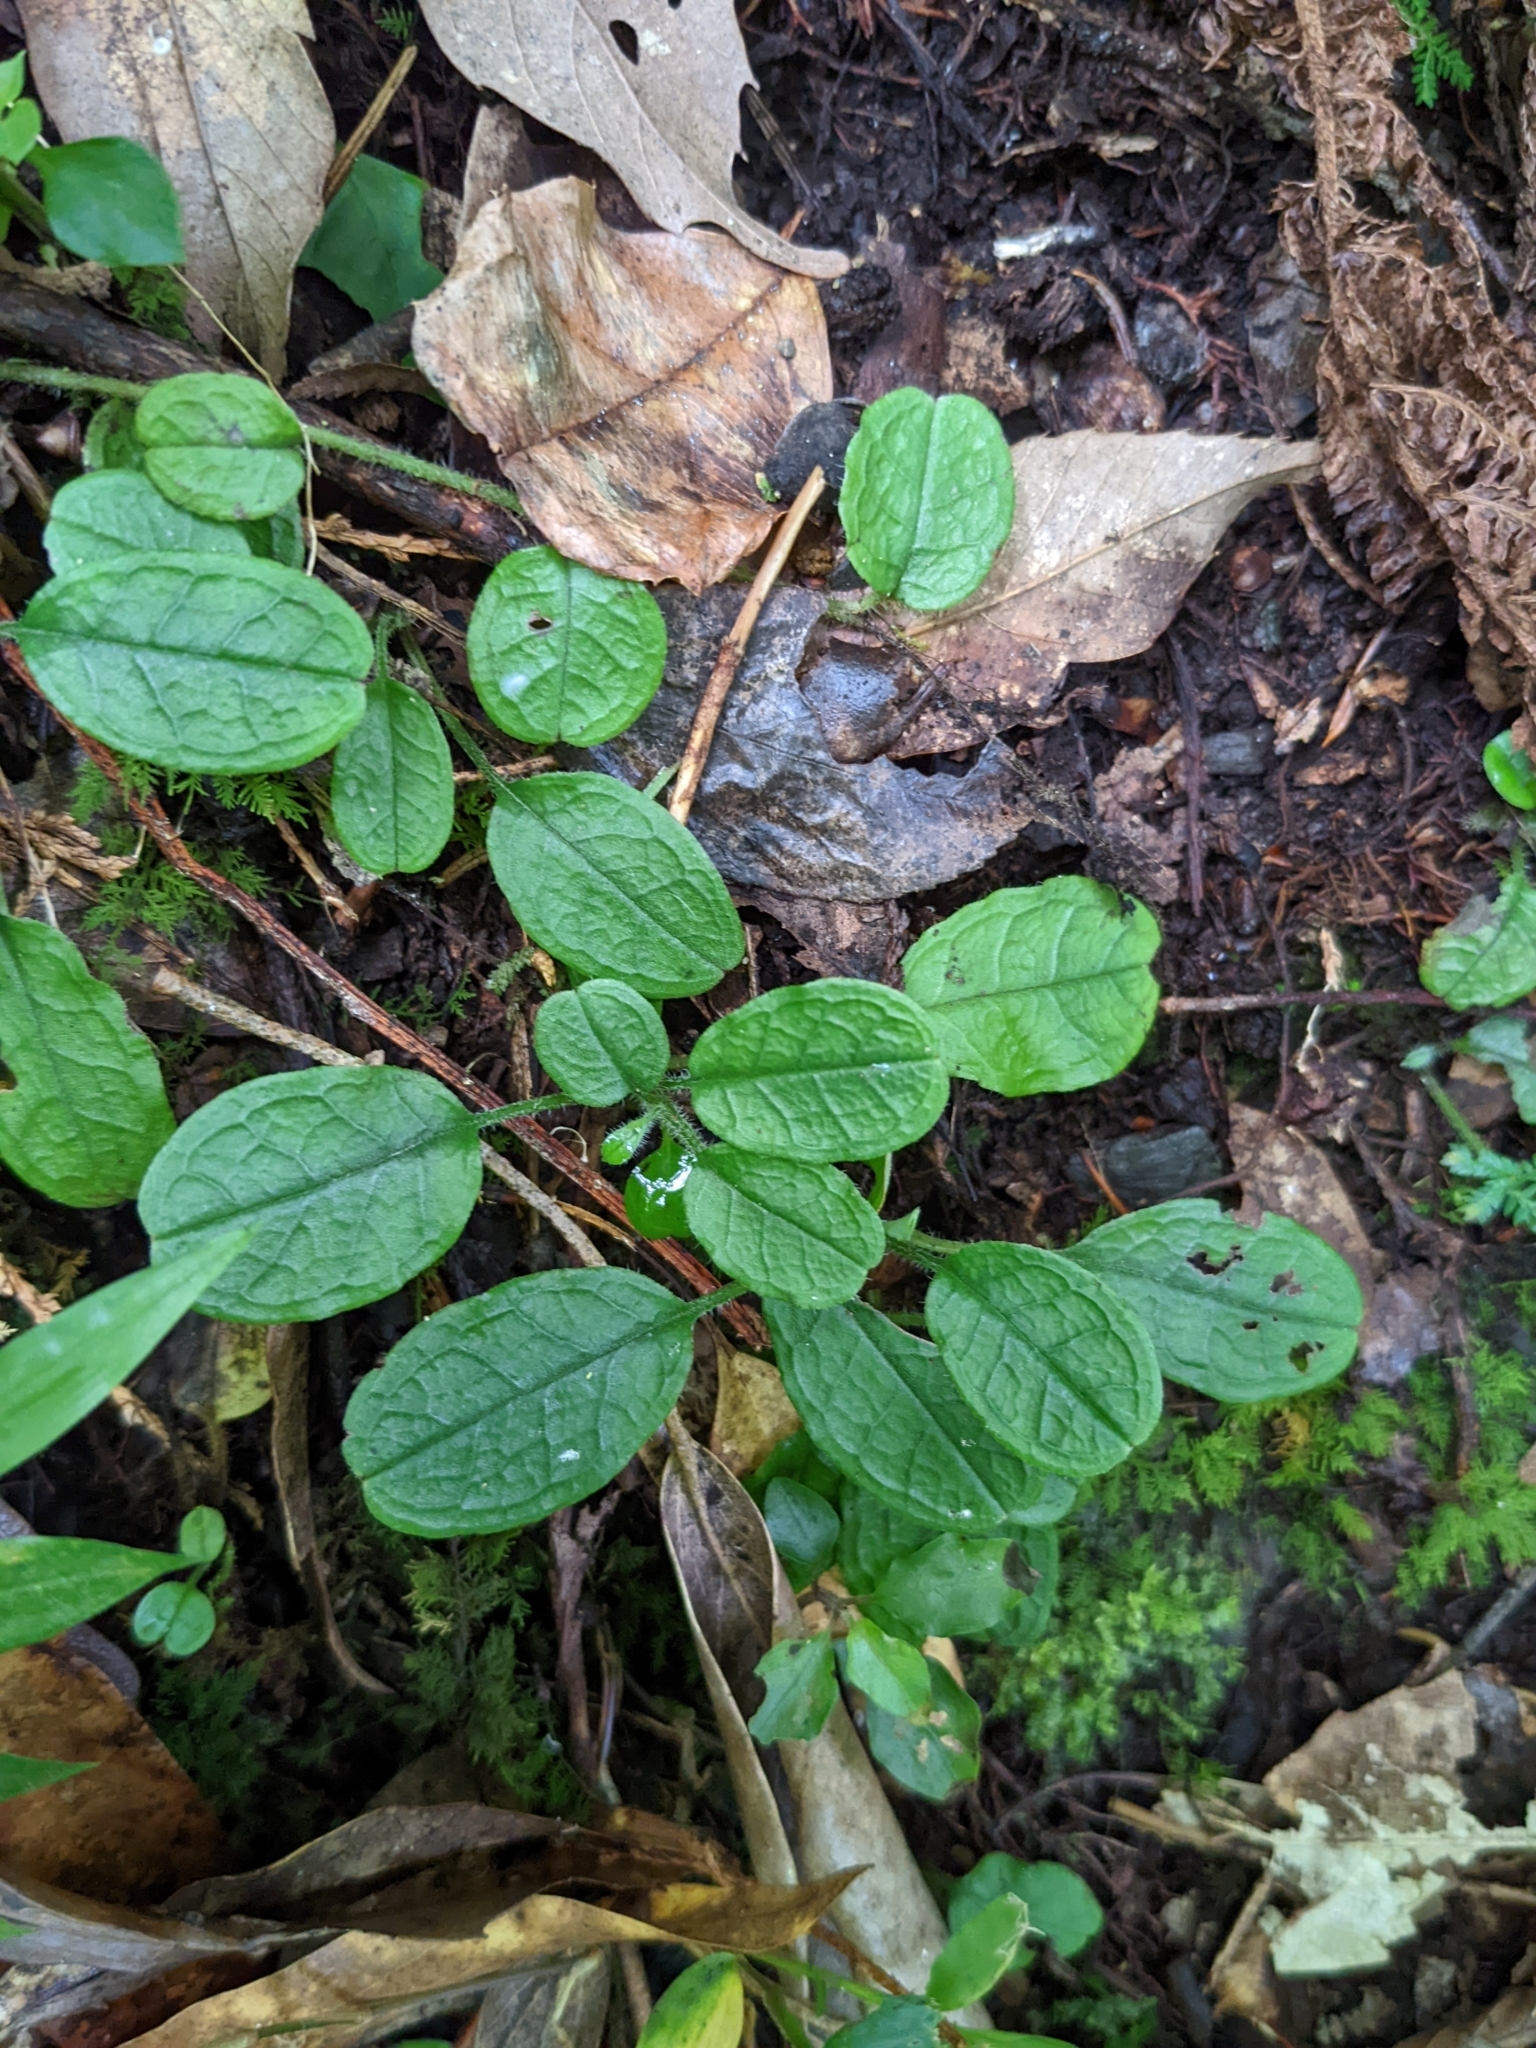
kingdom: Plantae
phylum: Tracheophyta
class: Magnoliopsida
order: Boraginales
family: Boraginaceae
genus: Trigonotis
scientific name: Trigonotis formosana
